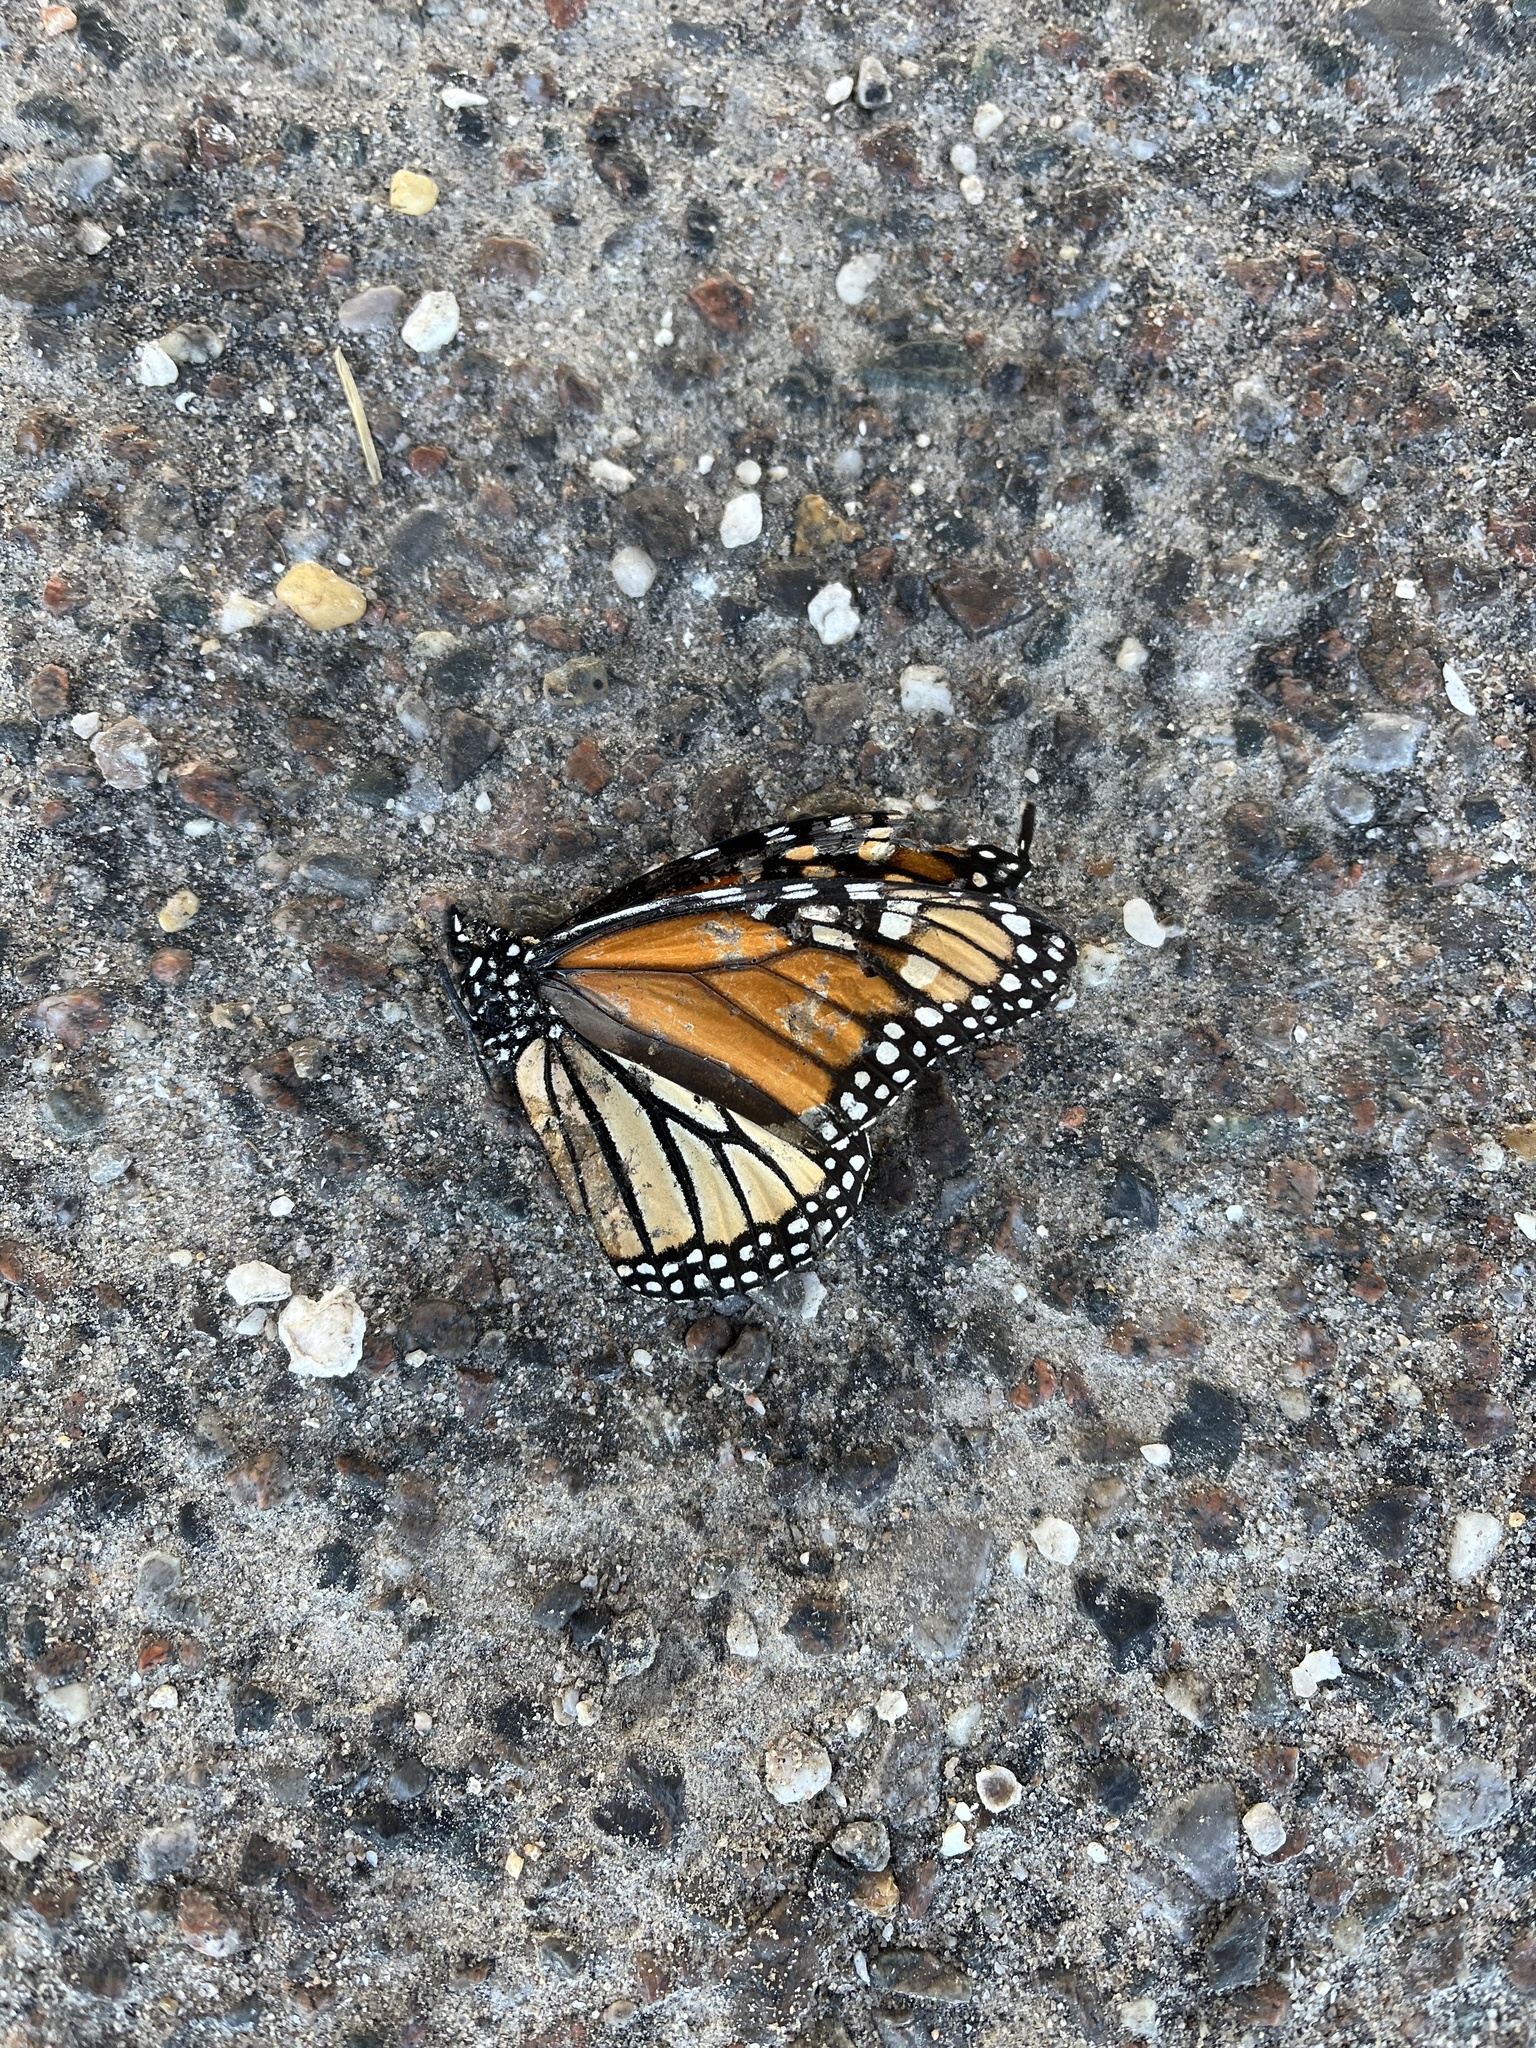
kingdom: Animalia
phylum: Arthropoda
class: Insecta
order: Lepidoptera
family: Nymphalidae
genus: Danaus
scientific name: Danaus plexippus
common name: Monarch
